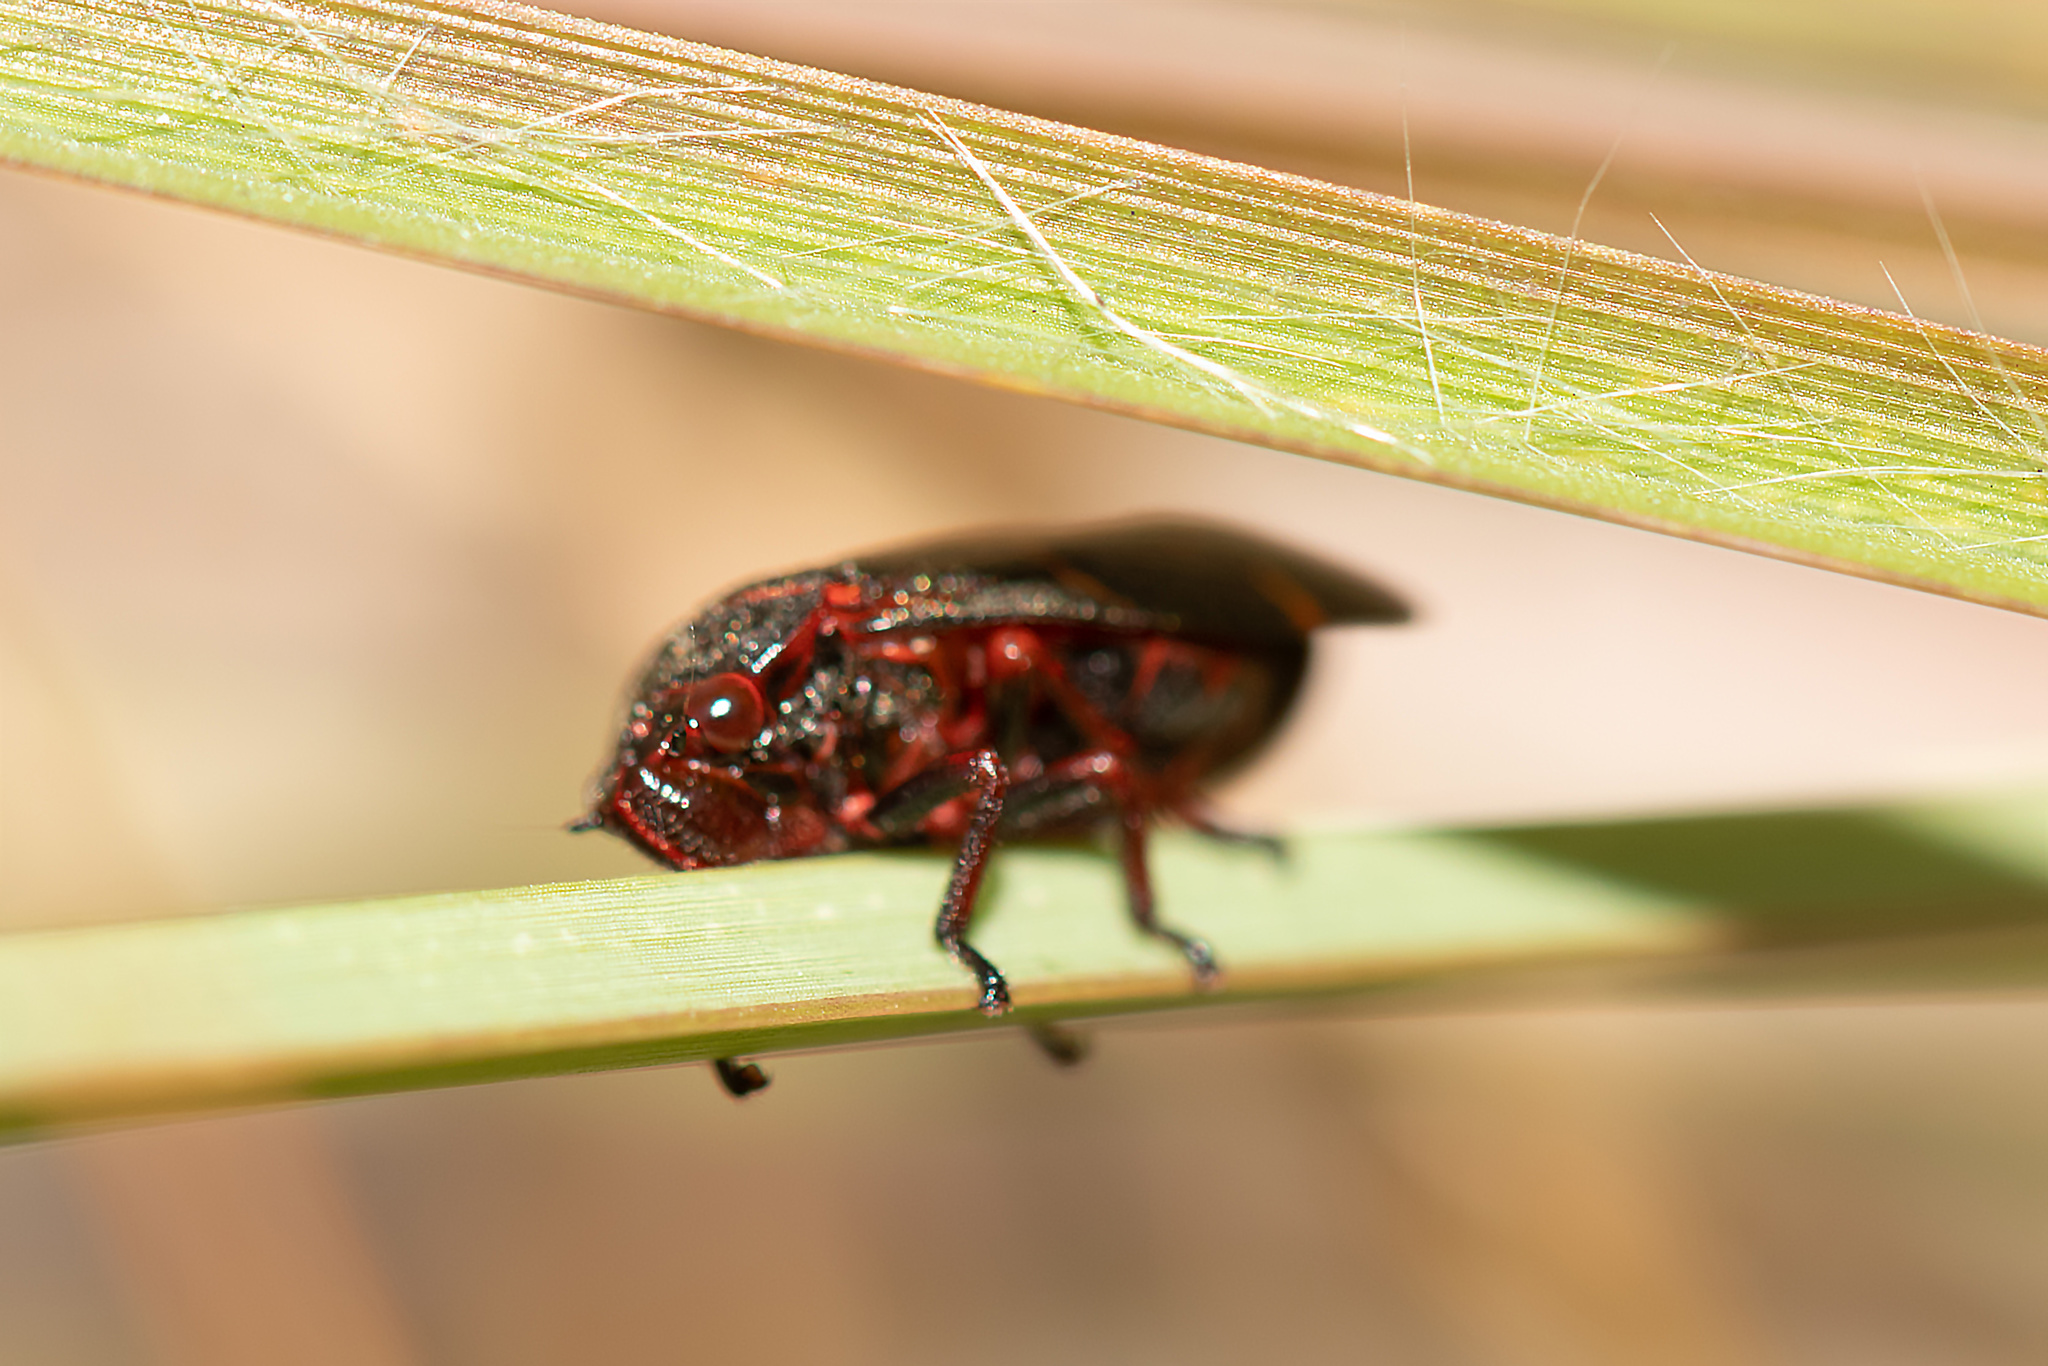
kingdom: Animalia
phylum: Arthropoda
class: Insecta
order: Hemiptera
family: Cercopidae
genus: Prosapia
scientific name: Prosapia bicincta
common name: Twolined spittlebug
